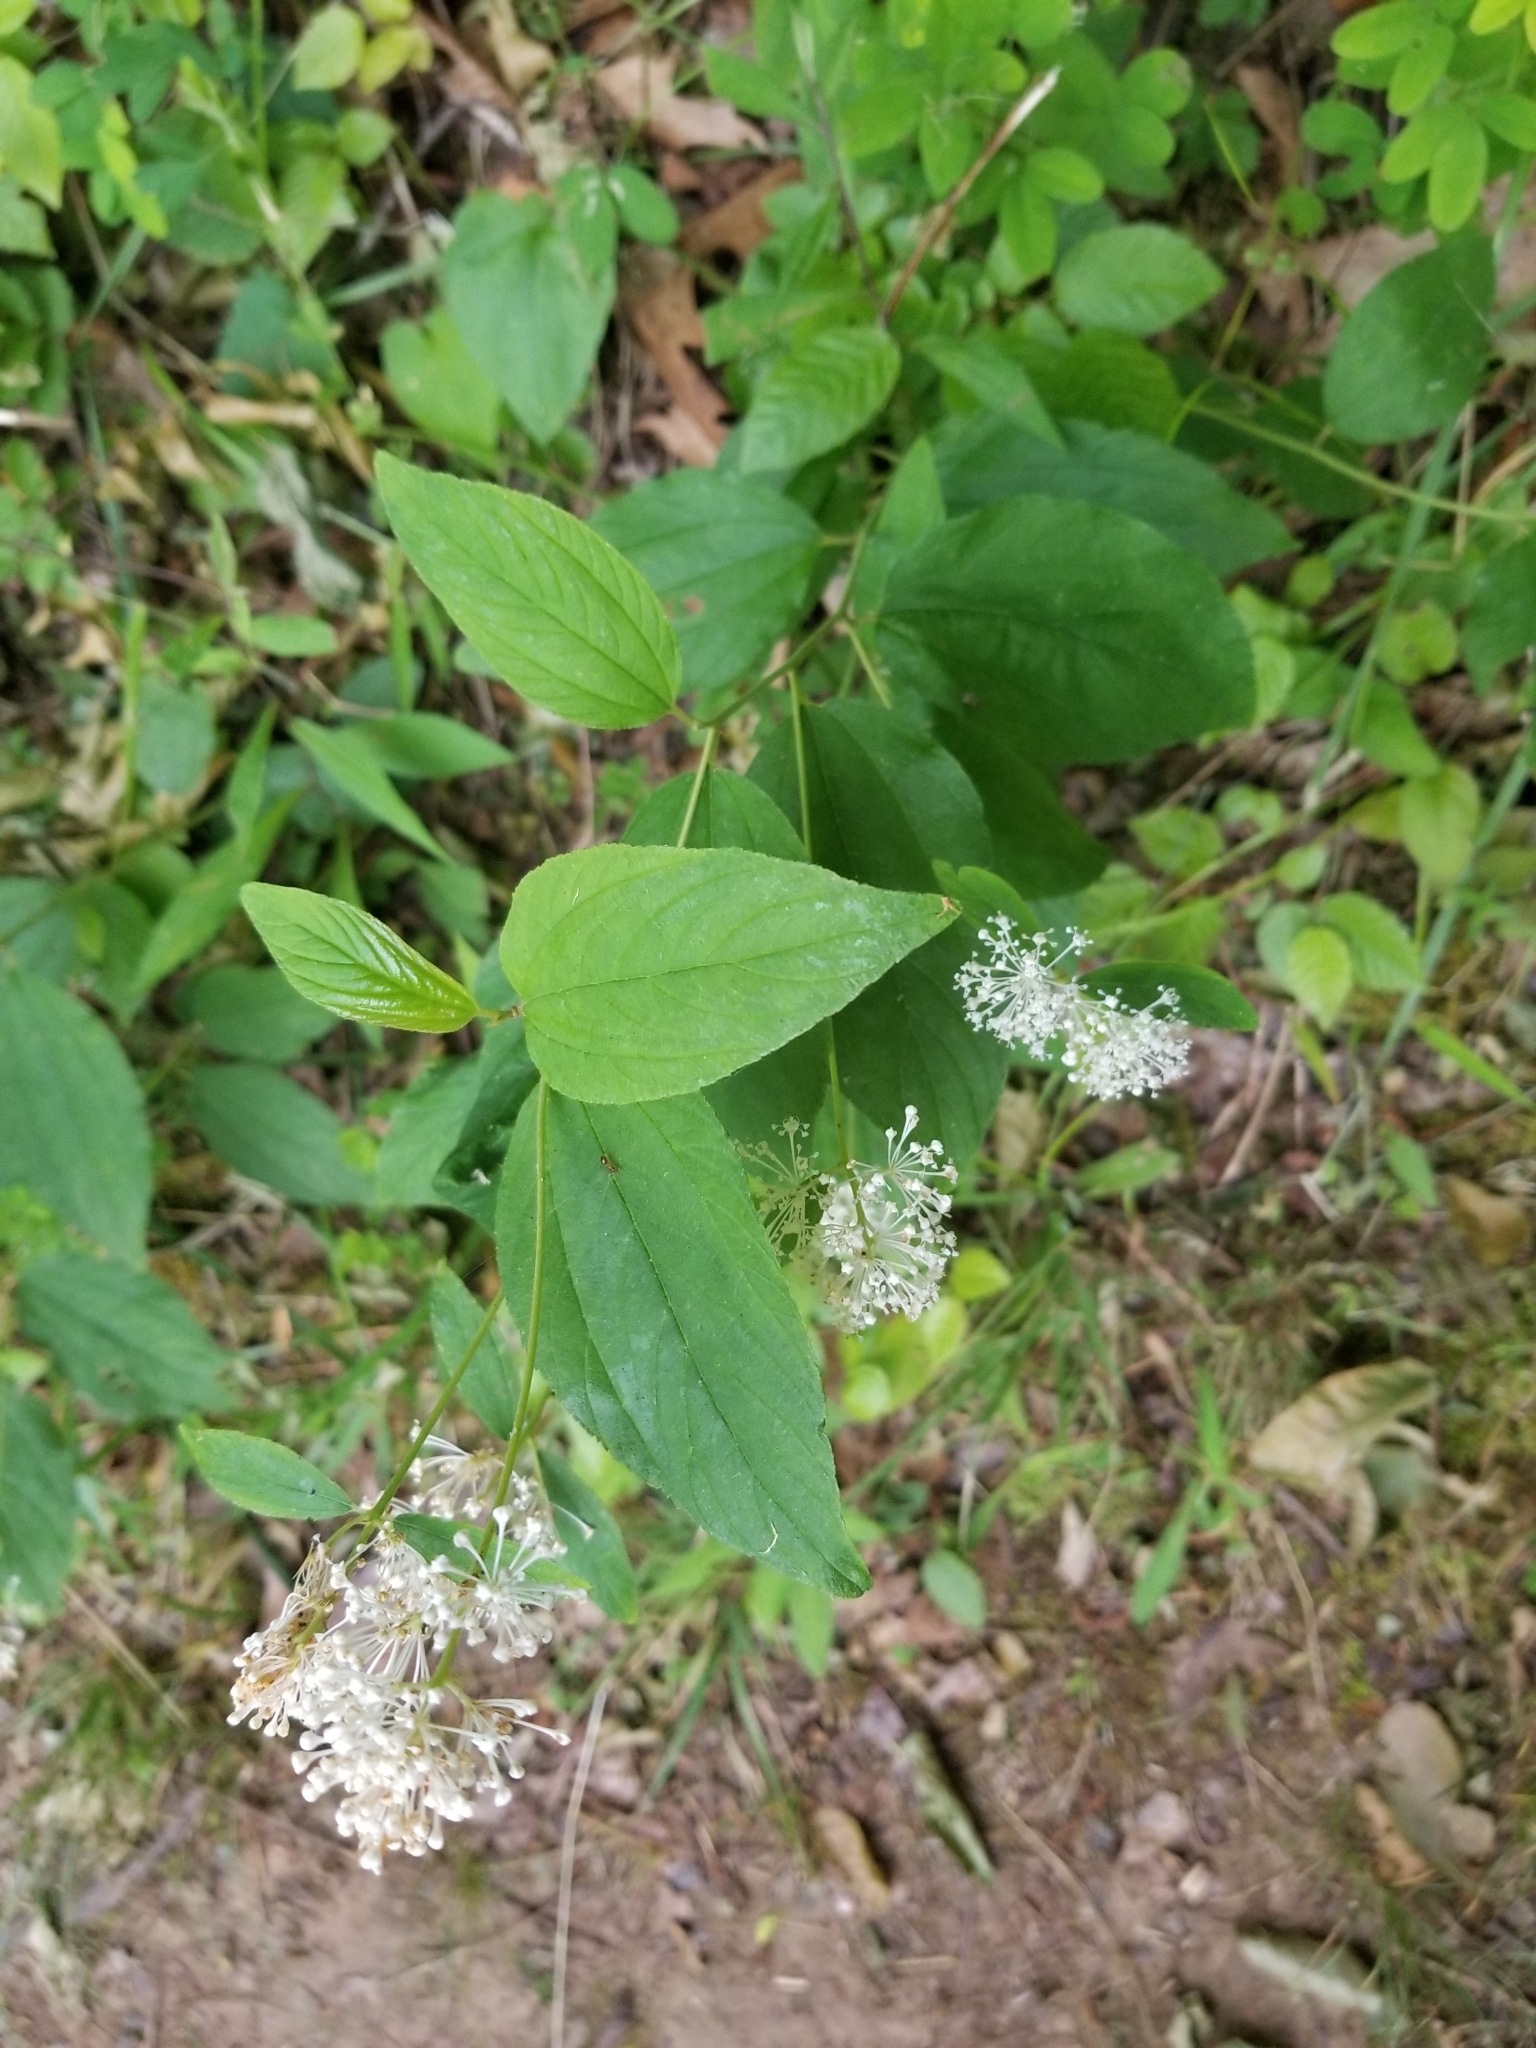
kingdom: Plantae
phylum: Tracheophyta
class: Magnoliopsida
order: Rosales
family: Rhamnaceae
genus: Ceanothus
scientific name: Ceanothus americanus
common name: Redroot
